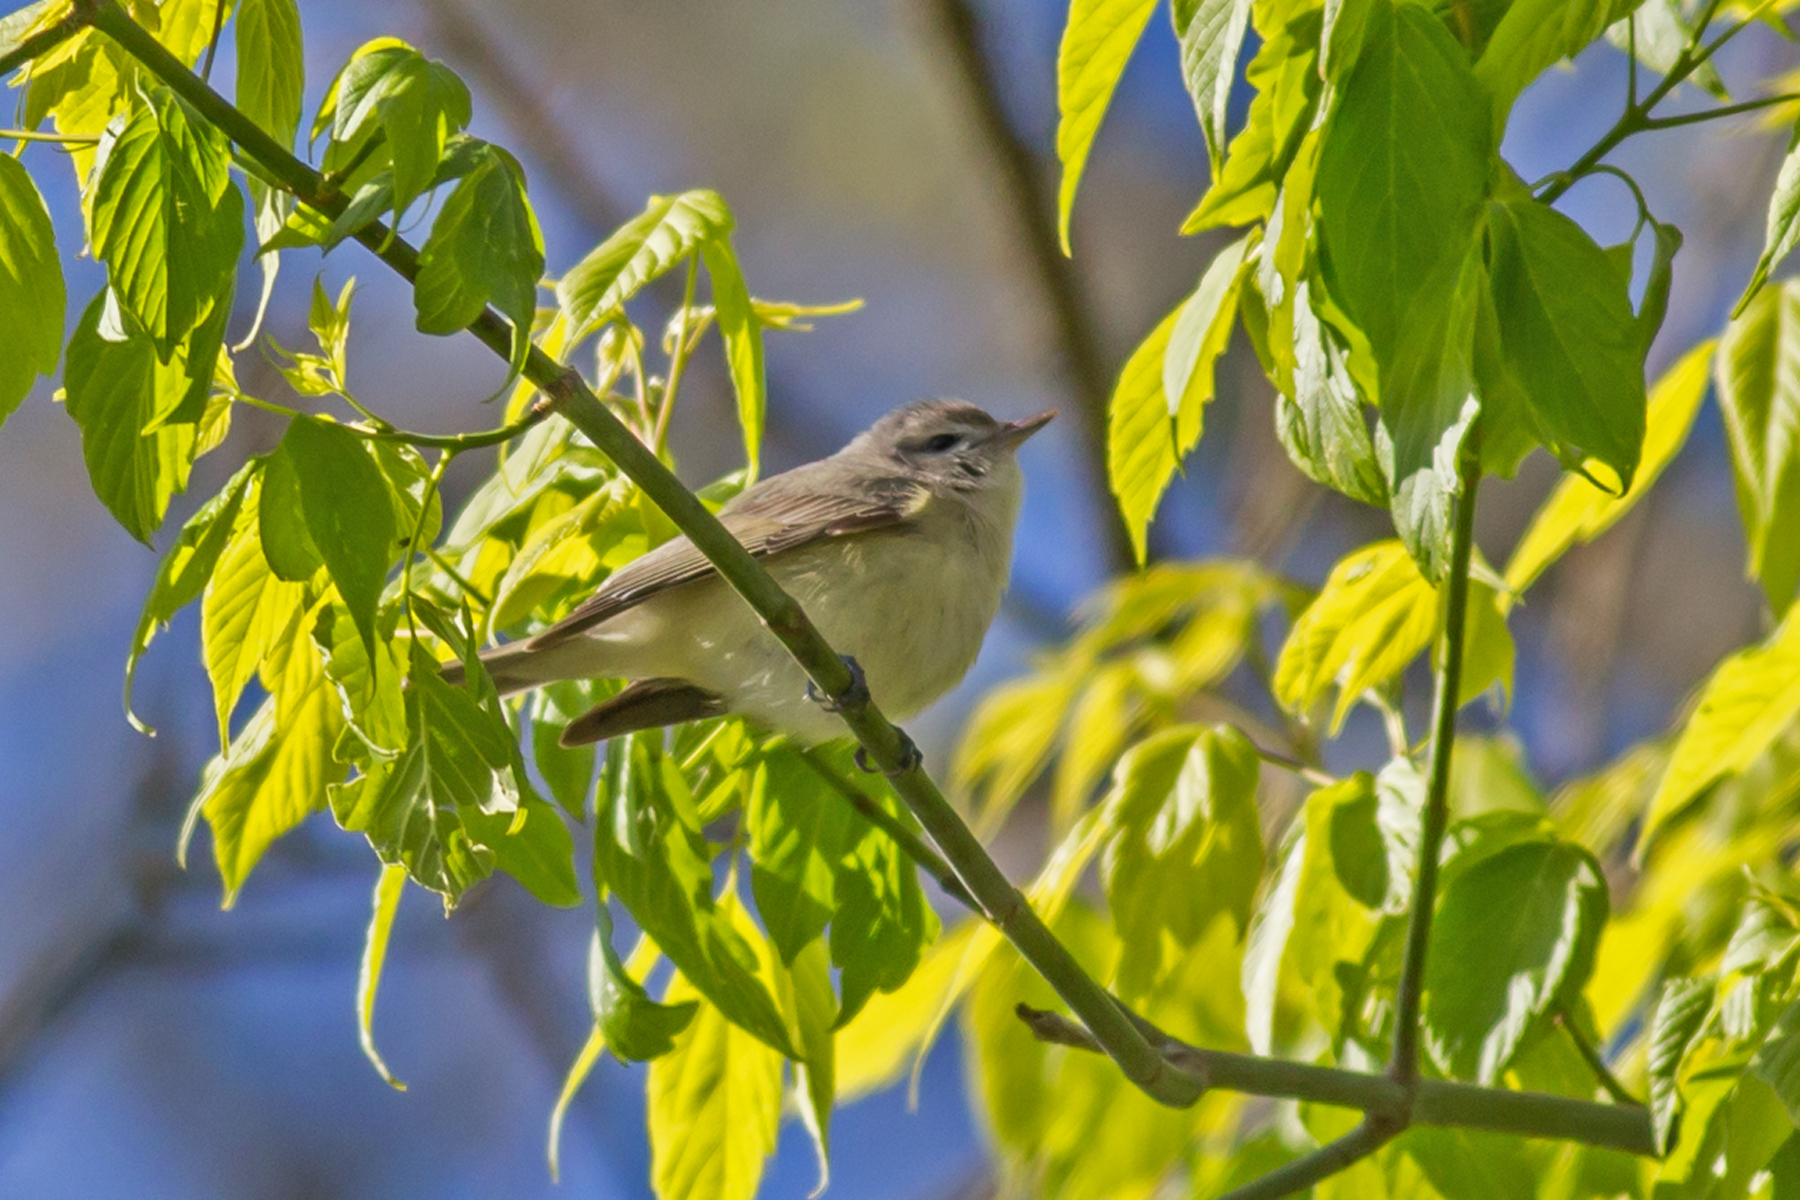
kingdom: Animalia
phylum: Chordata
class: Aves
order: Passeriformes
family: Vireonidae
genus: Vireo
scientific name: Vireo gilvus
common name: Warbling vireo
